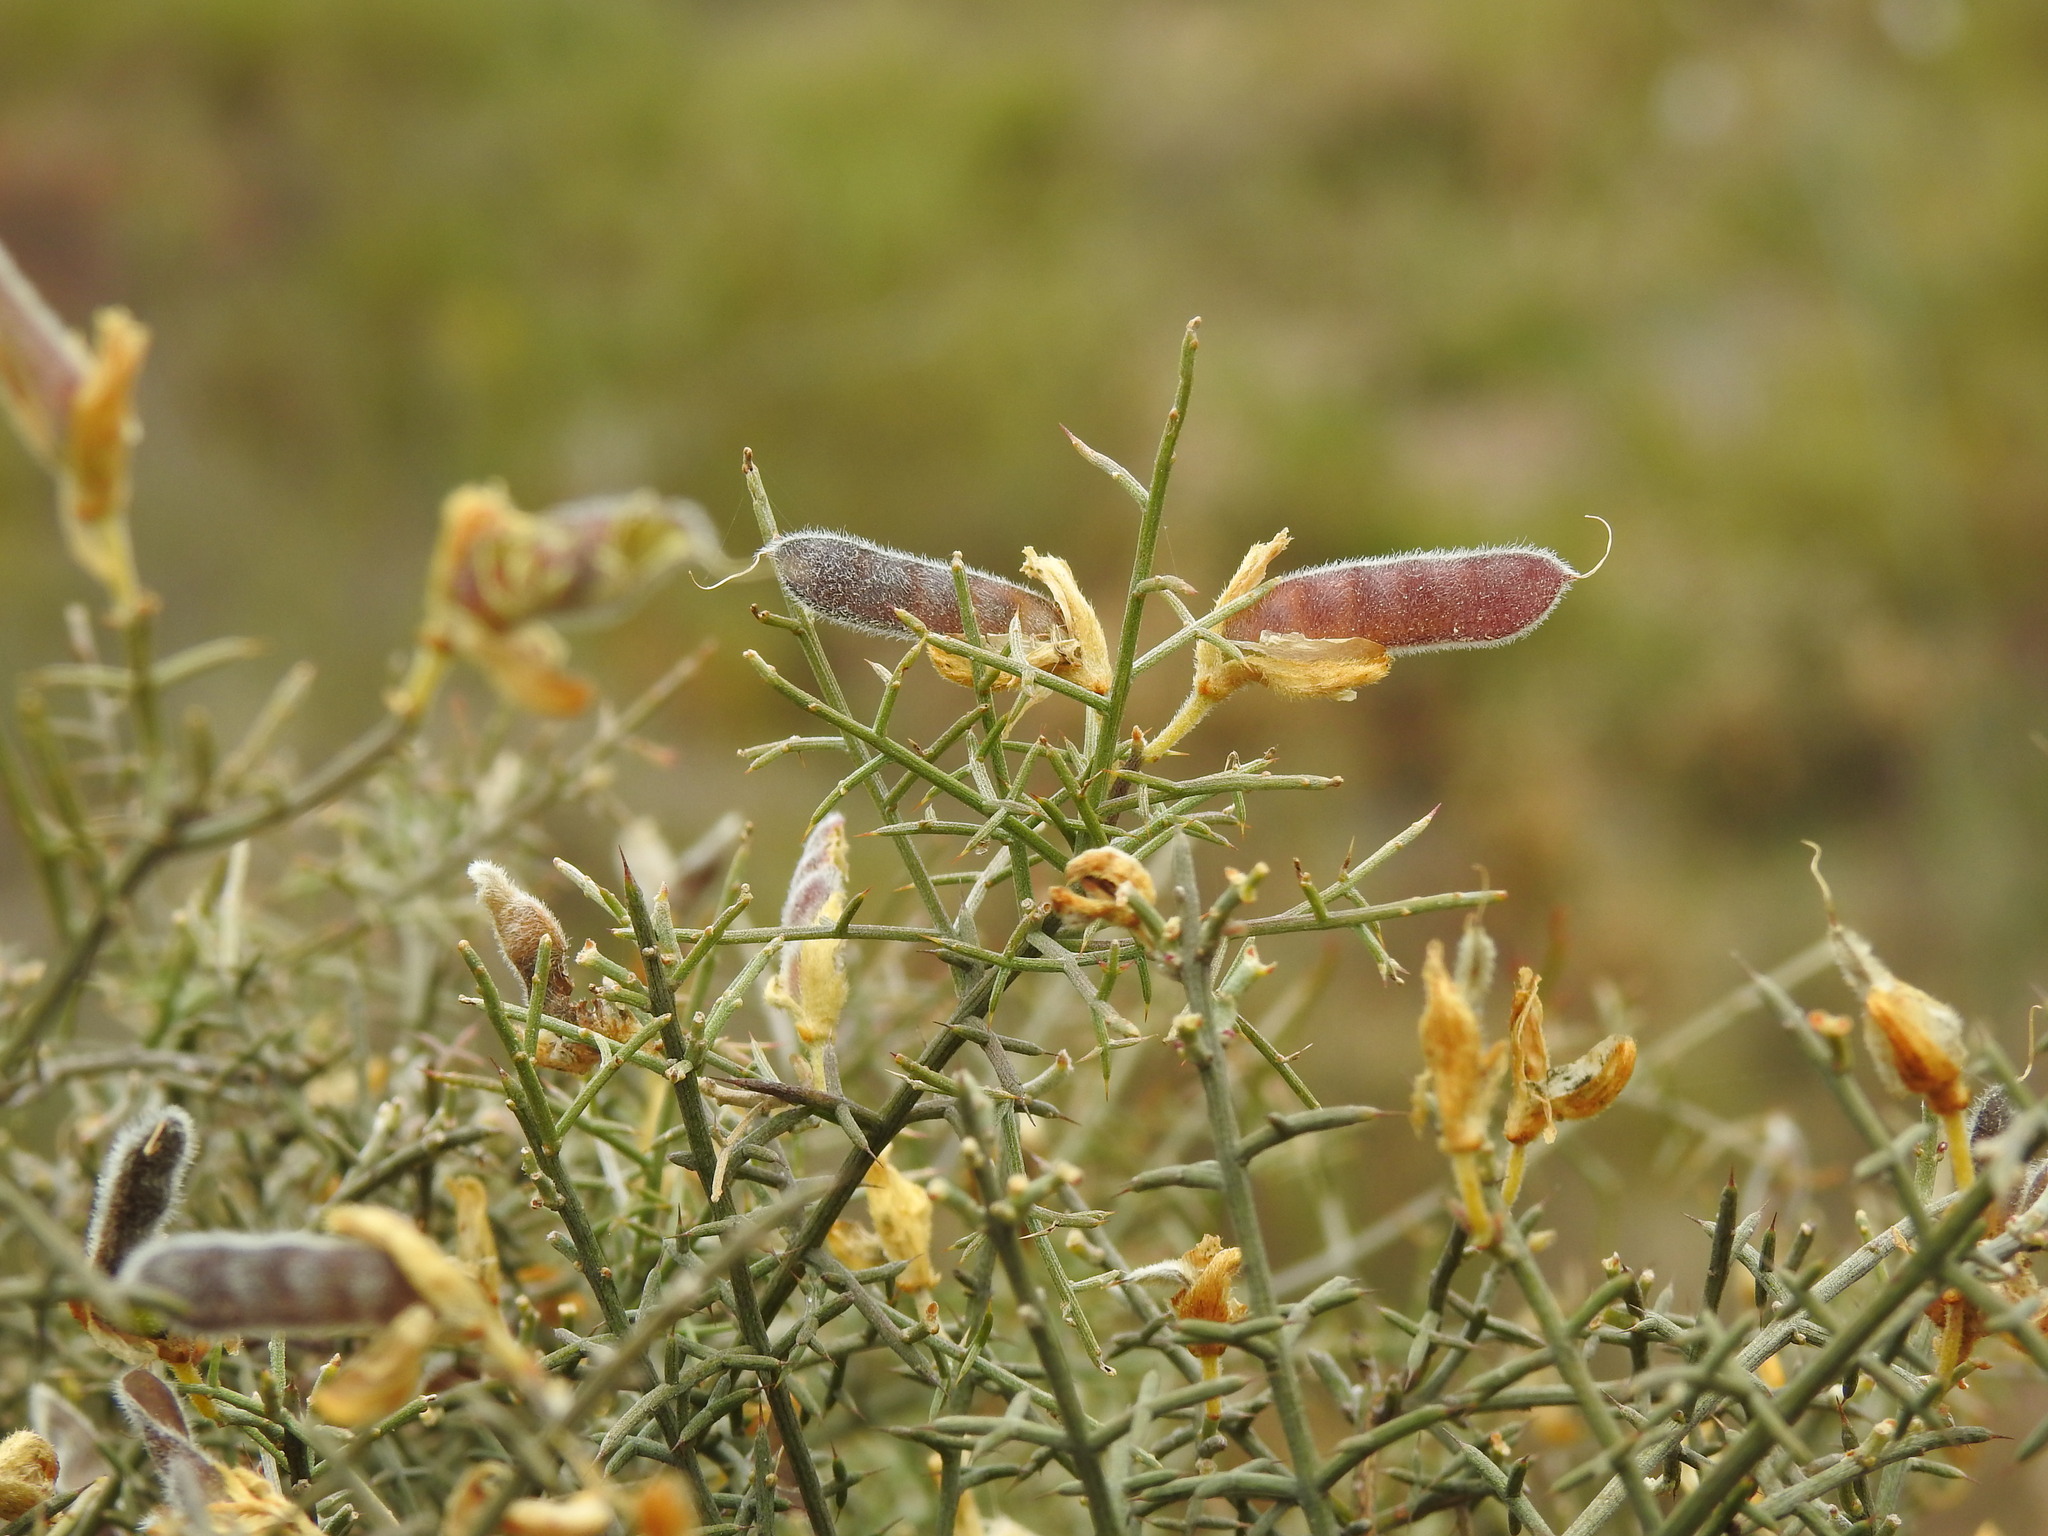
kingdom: Plantae
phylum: Tracheophyta
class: Magnoliopsida
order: Fabales
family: Fabaceae
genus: Stauracanthus
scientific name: Stauracanthus genistoides
